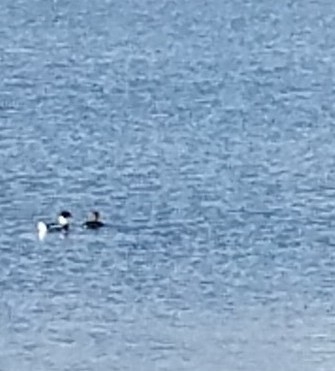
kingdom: Animalia
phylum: Chordata
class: Aves
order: Anseriformes
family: Anatidae
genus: Mergus
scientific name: Mergus serrator
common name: Red-breasted merganser
